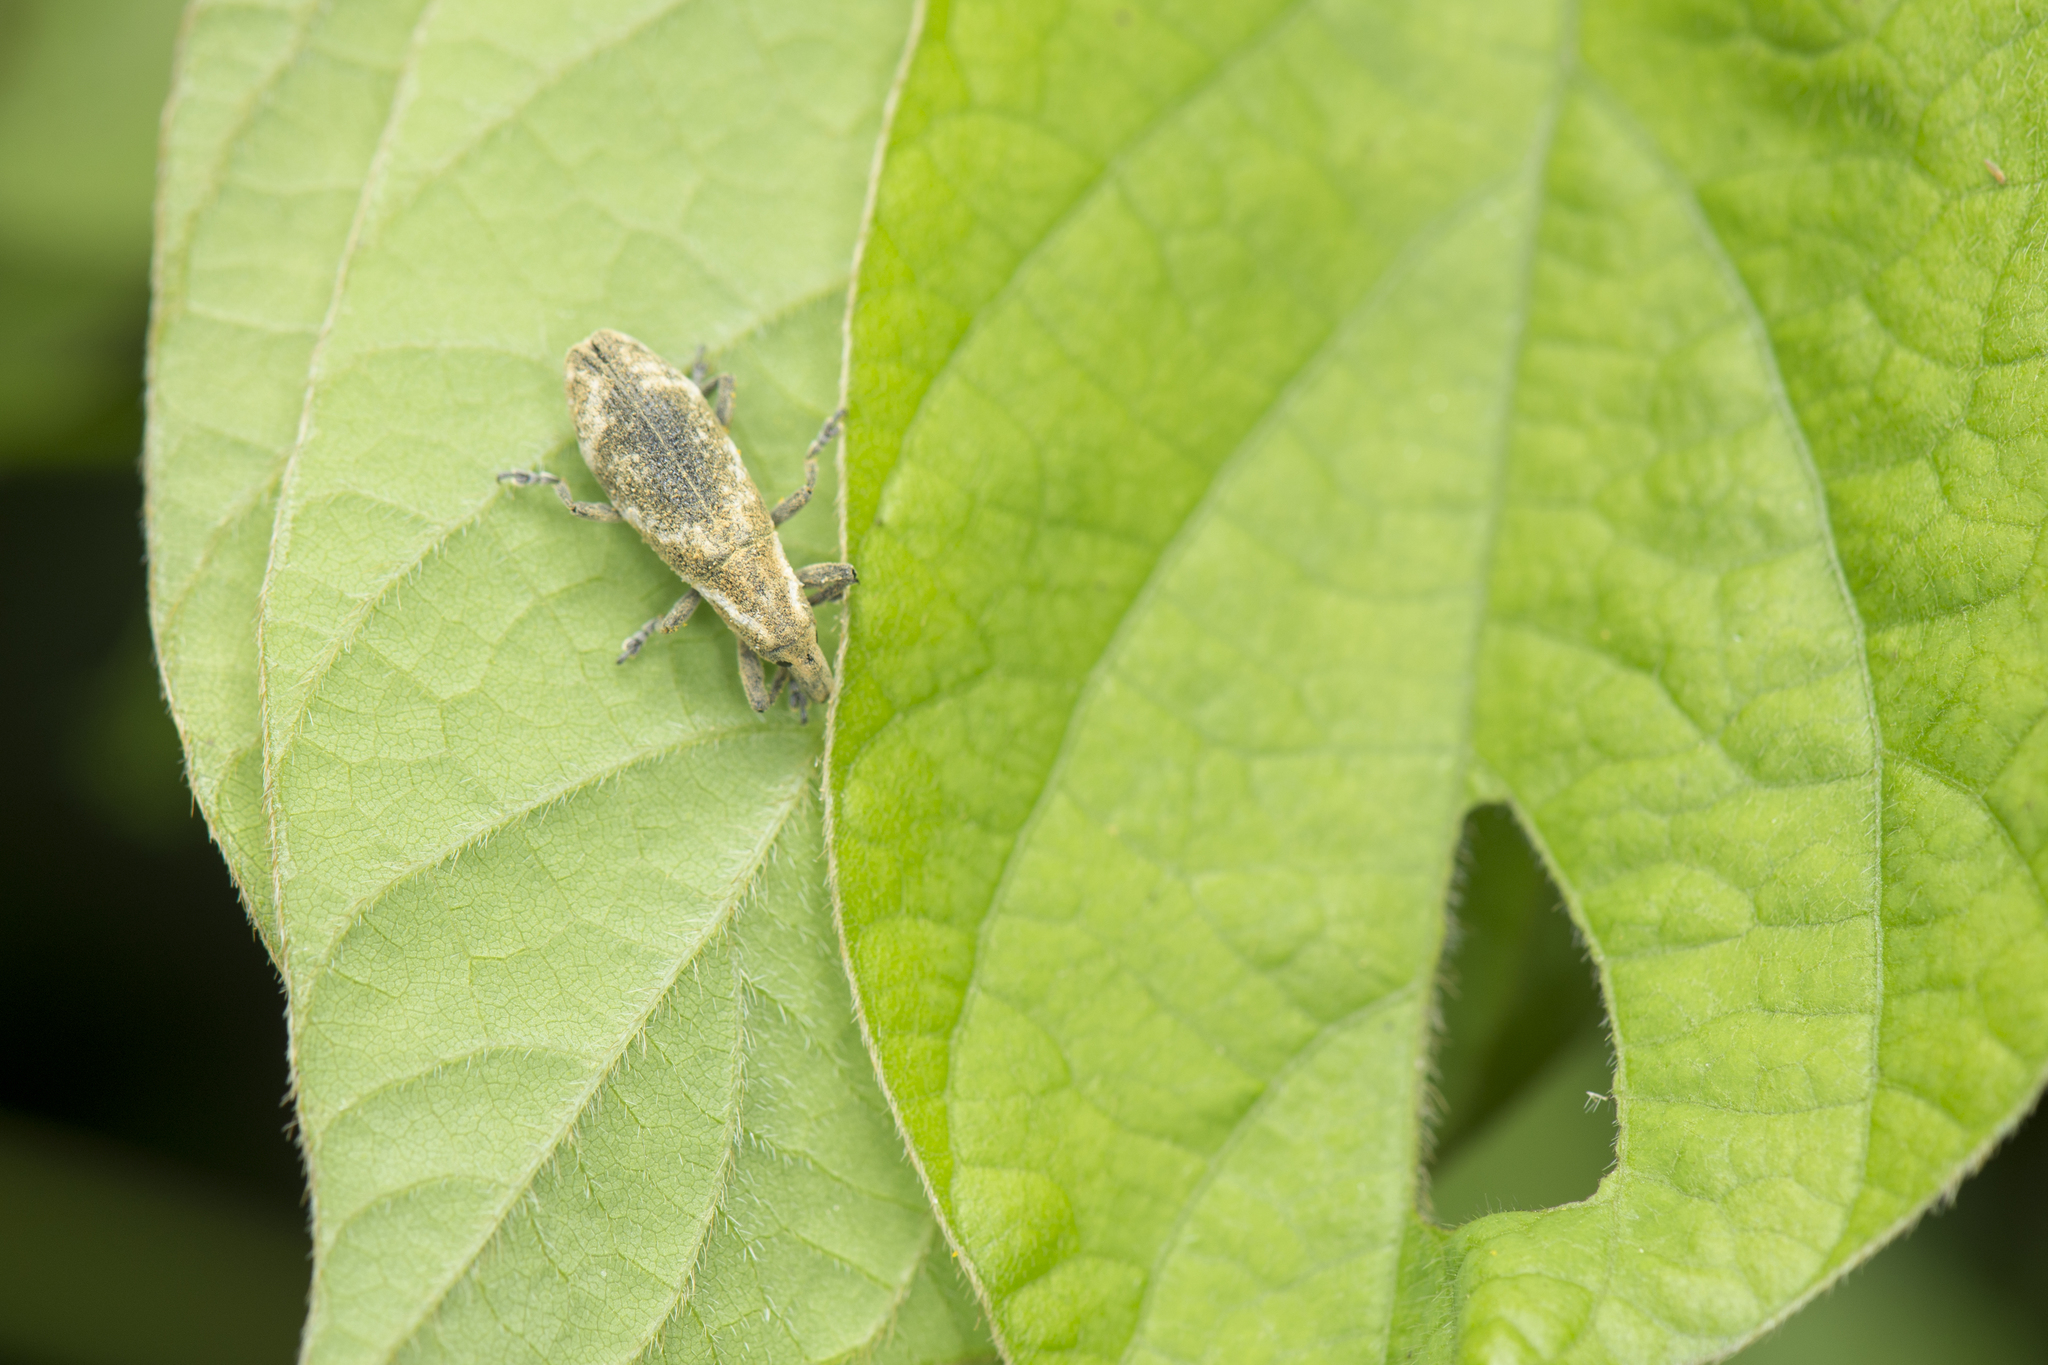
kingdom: Animalia
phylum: Arthropoda
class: Insecta
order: Coleoptera
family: Curculionidae
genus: Gasteroclisus
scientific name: Gasteroclisus
